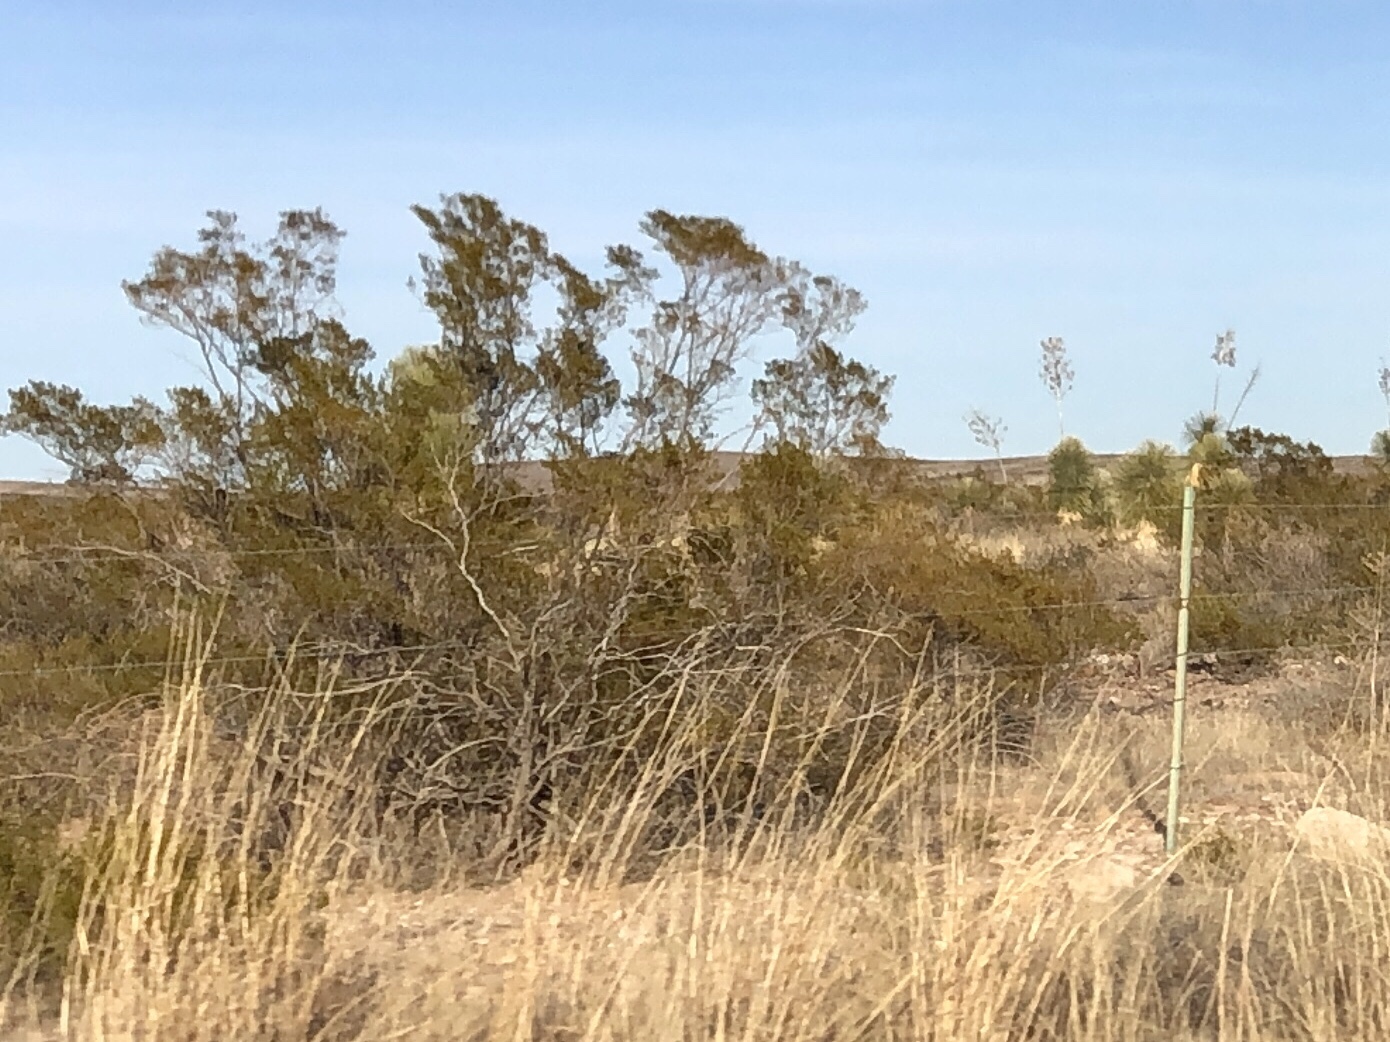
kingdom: Plantae
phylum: Tracheophyta
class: Magnoliopsida
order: Zygophyllales
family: Zygophyllaceae
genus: Larrea
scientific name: Larrea tridentata
